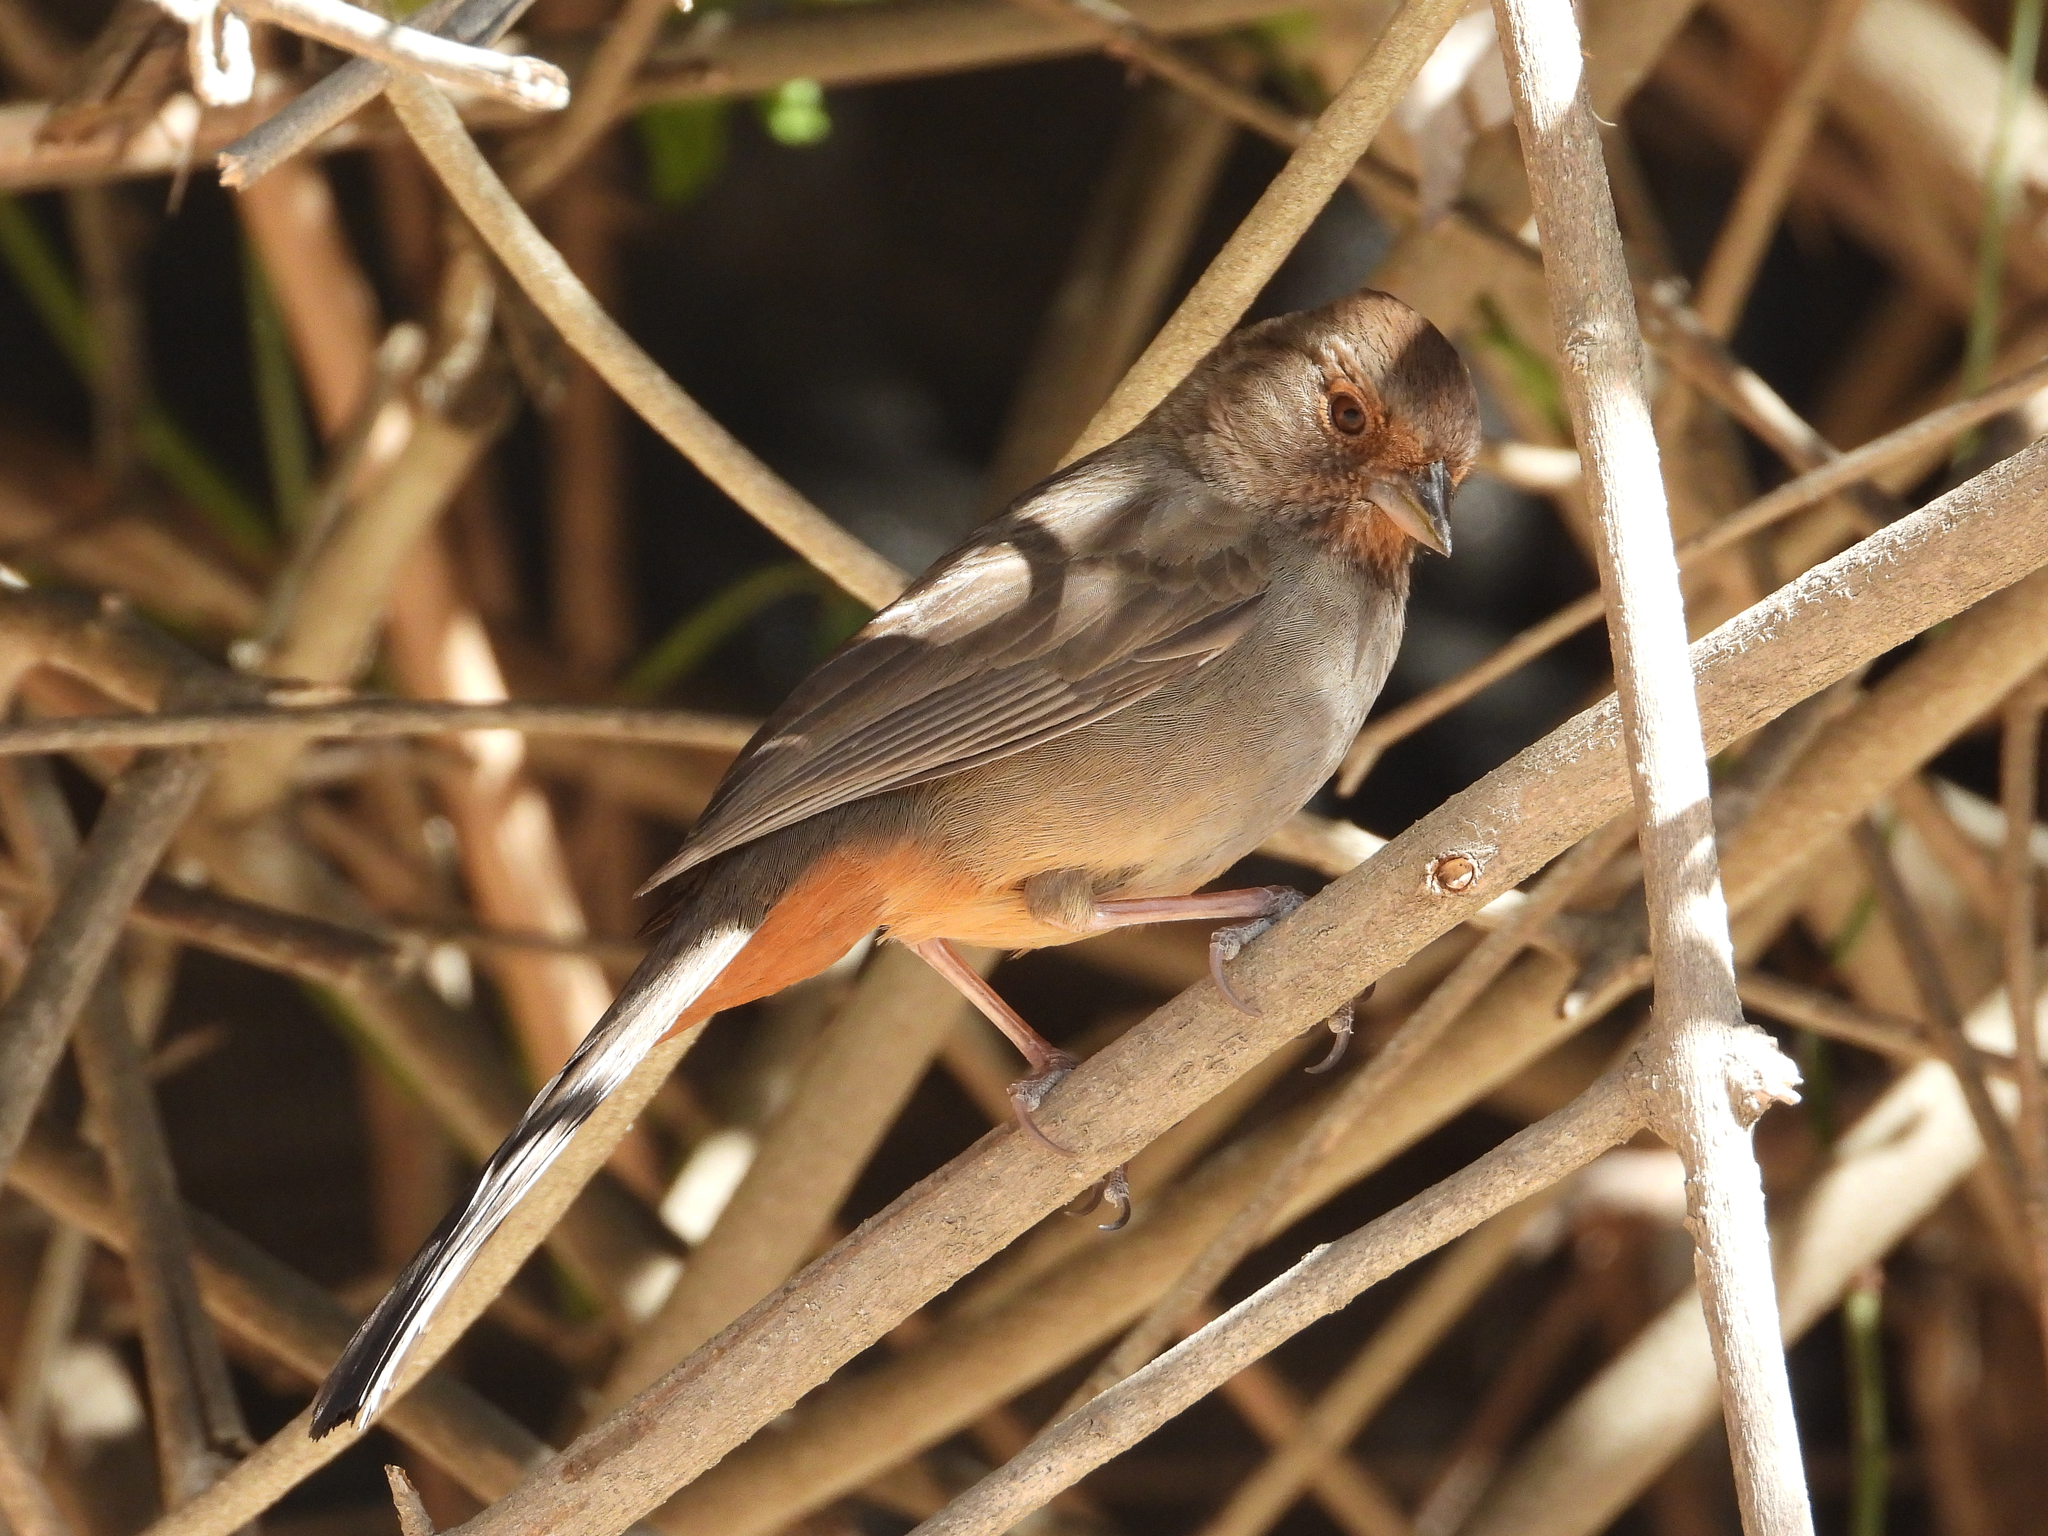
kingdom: Animalia
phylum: Chordata
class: Aves
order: Passeriformes
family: Passerellidae
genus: Melozone
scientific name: Melozone crissalis
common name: California towhee
